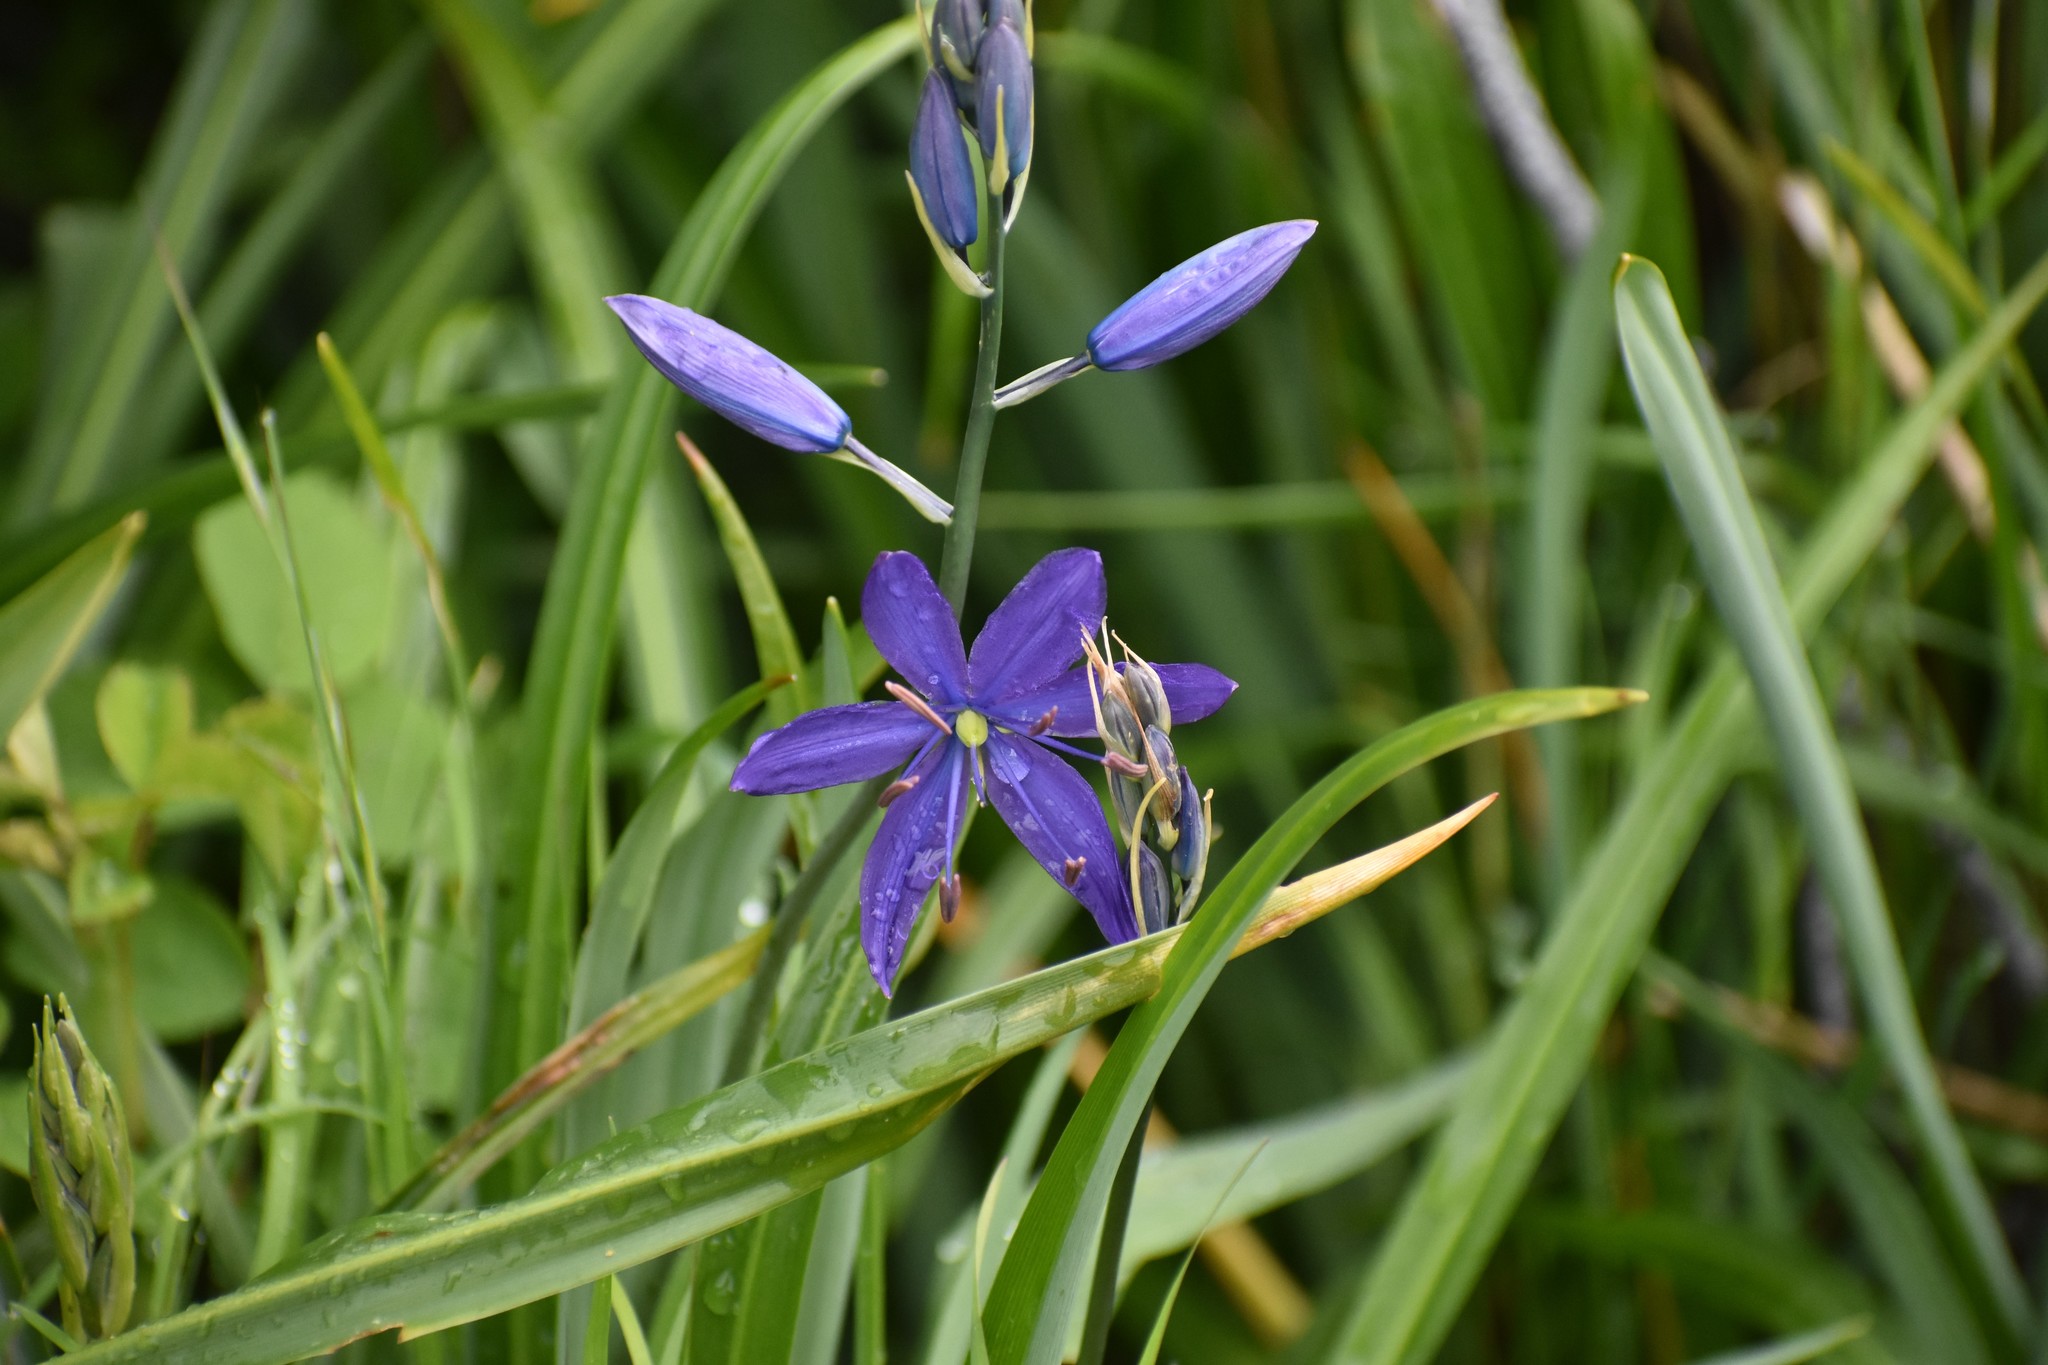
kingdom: Plantae
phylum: Tracheophyta
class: Liliopsida
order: Asparagales
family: Asparagaceae
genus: Camassia
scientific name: Camassia leichtlinii
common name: Leichtlin's camas
